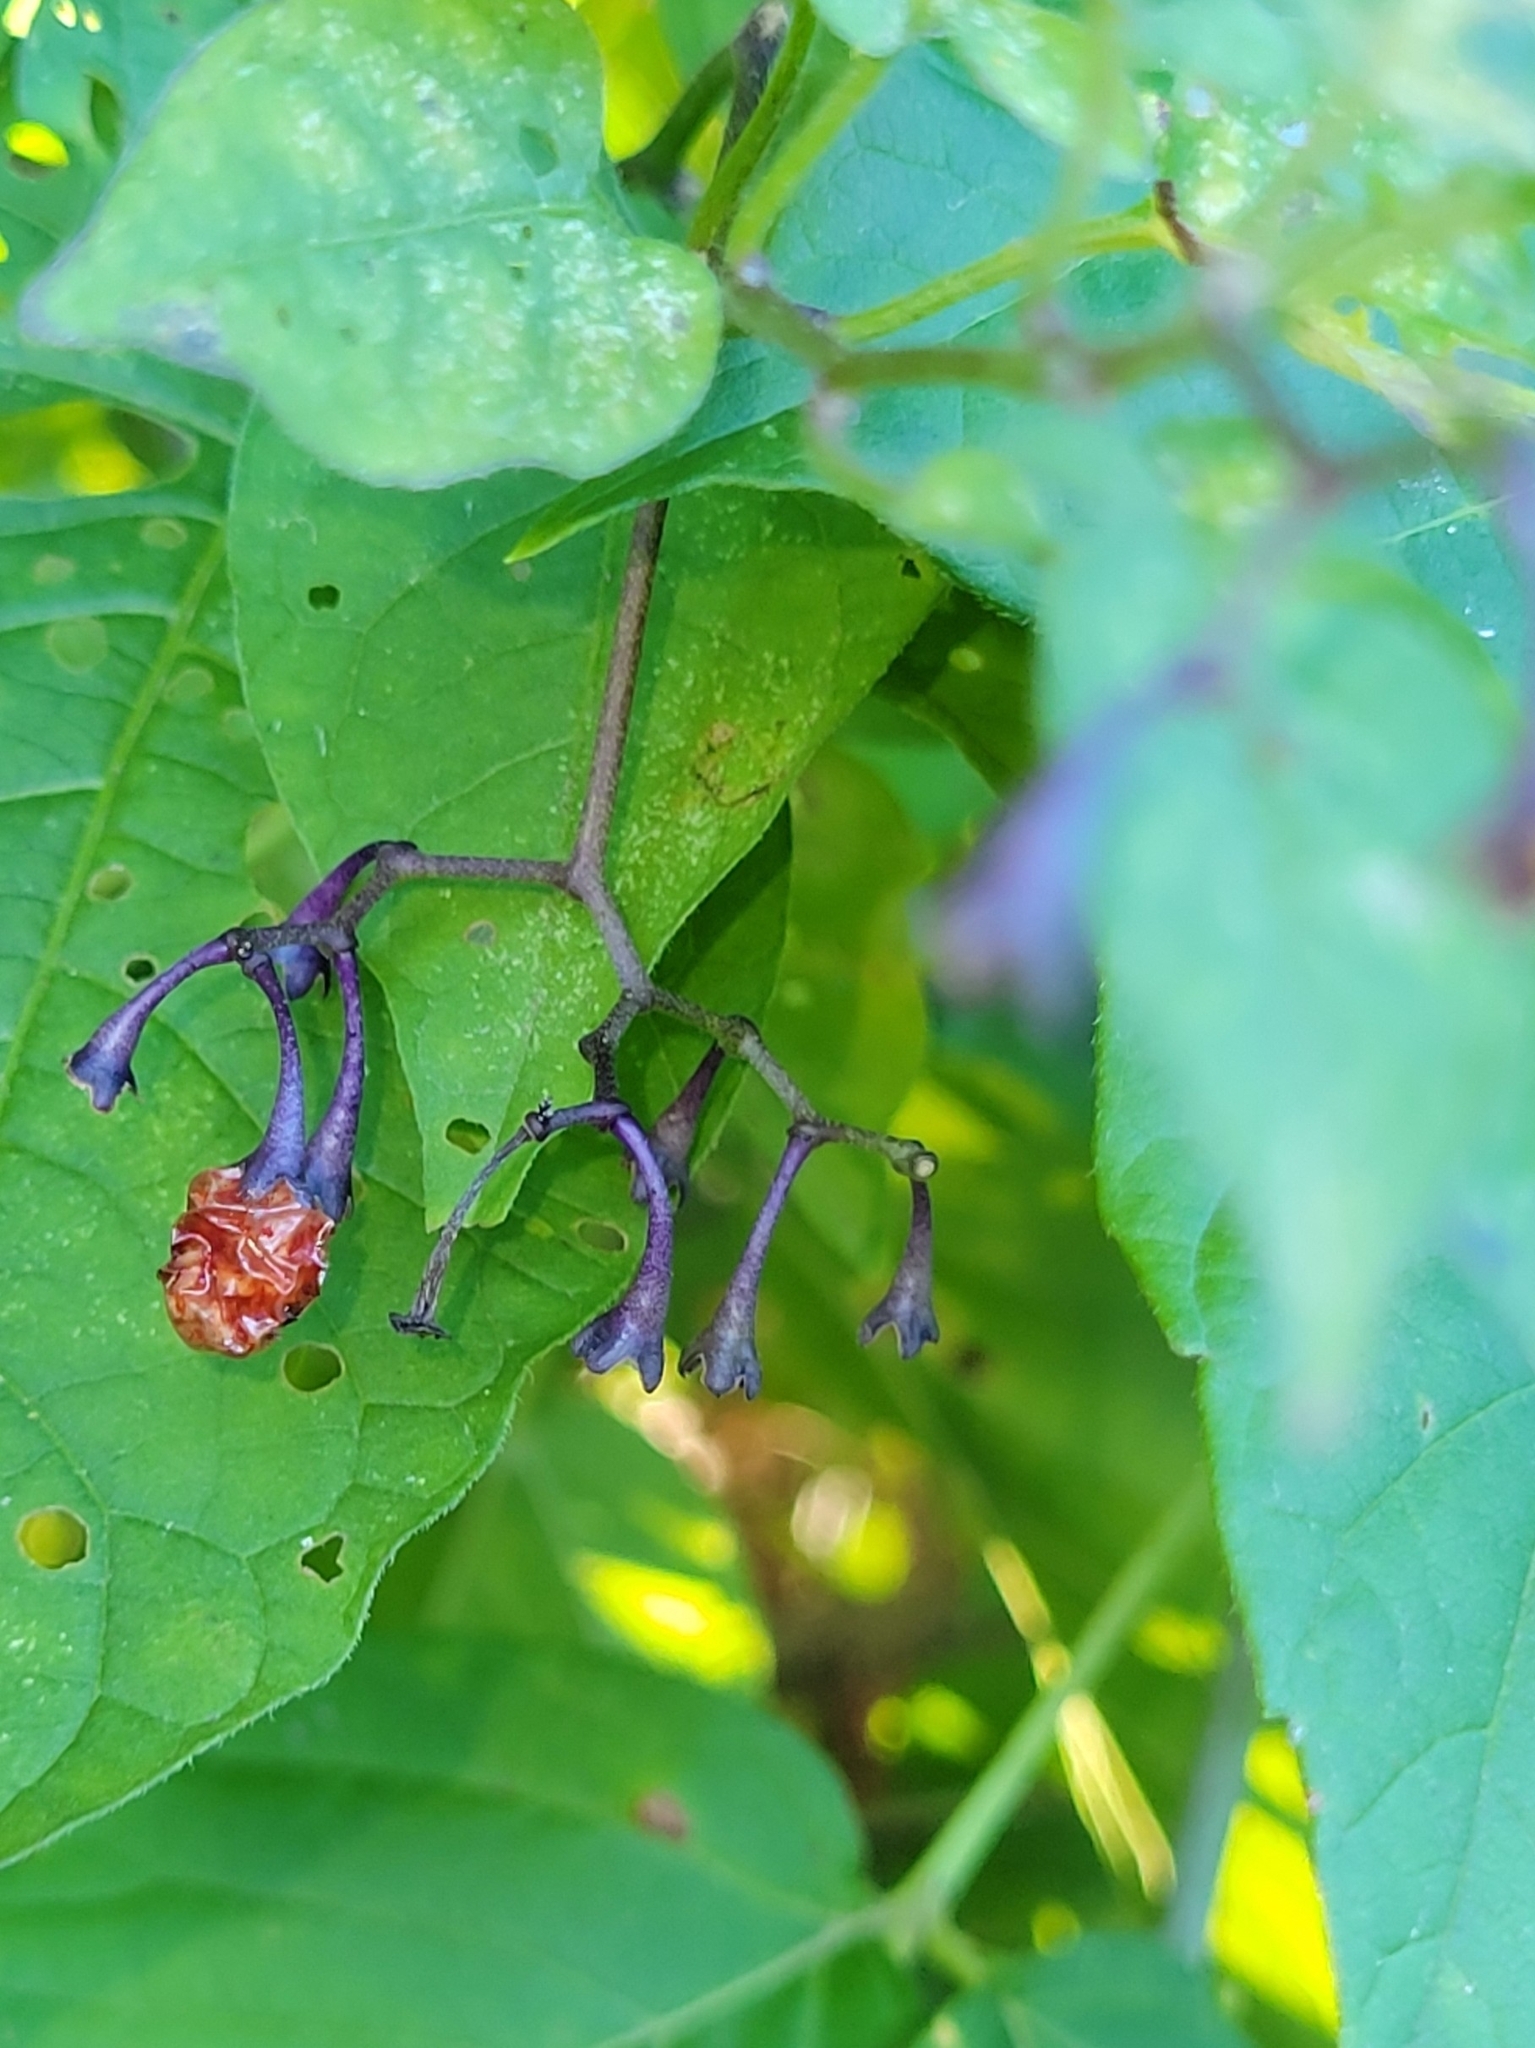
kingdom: Plantae
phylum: Tracheophyta
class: Magnoliopsida
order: Solanales
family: Solanaceae
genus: Solanum
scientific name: Solanum dulcamara
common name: Climbing nightshade
